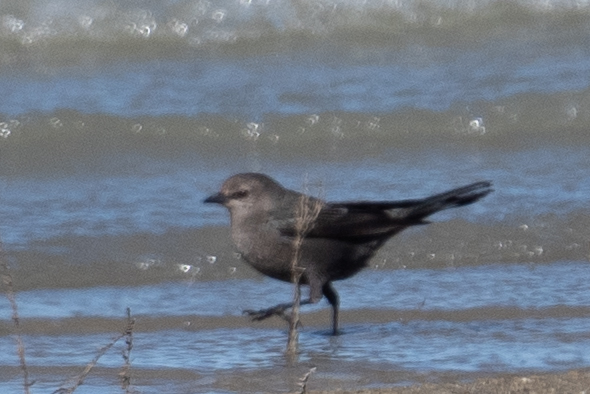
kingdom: Animalia
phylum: Chordata
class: Aves
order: Passeriformes
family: Icteridae
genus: Euphagus
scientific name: Euphagus cyanocephalus
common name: Brewer's blackbird
